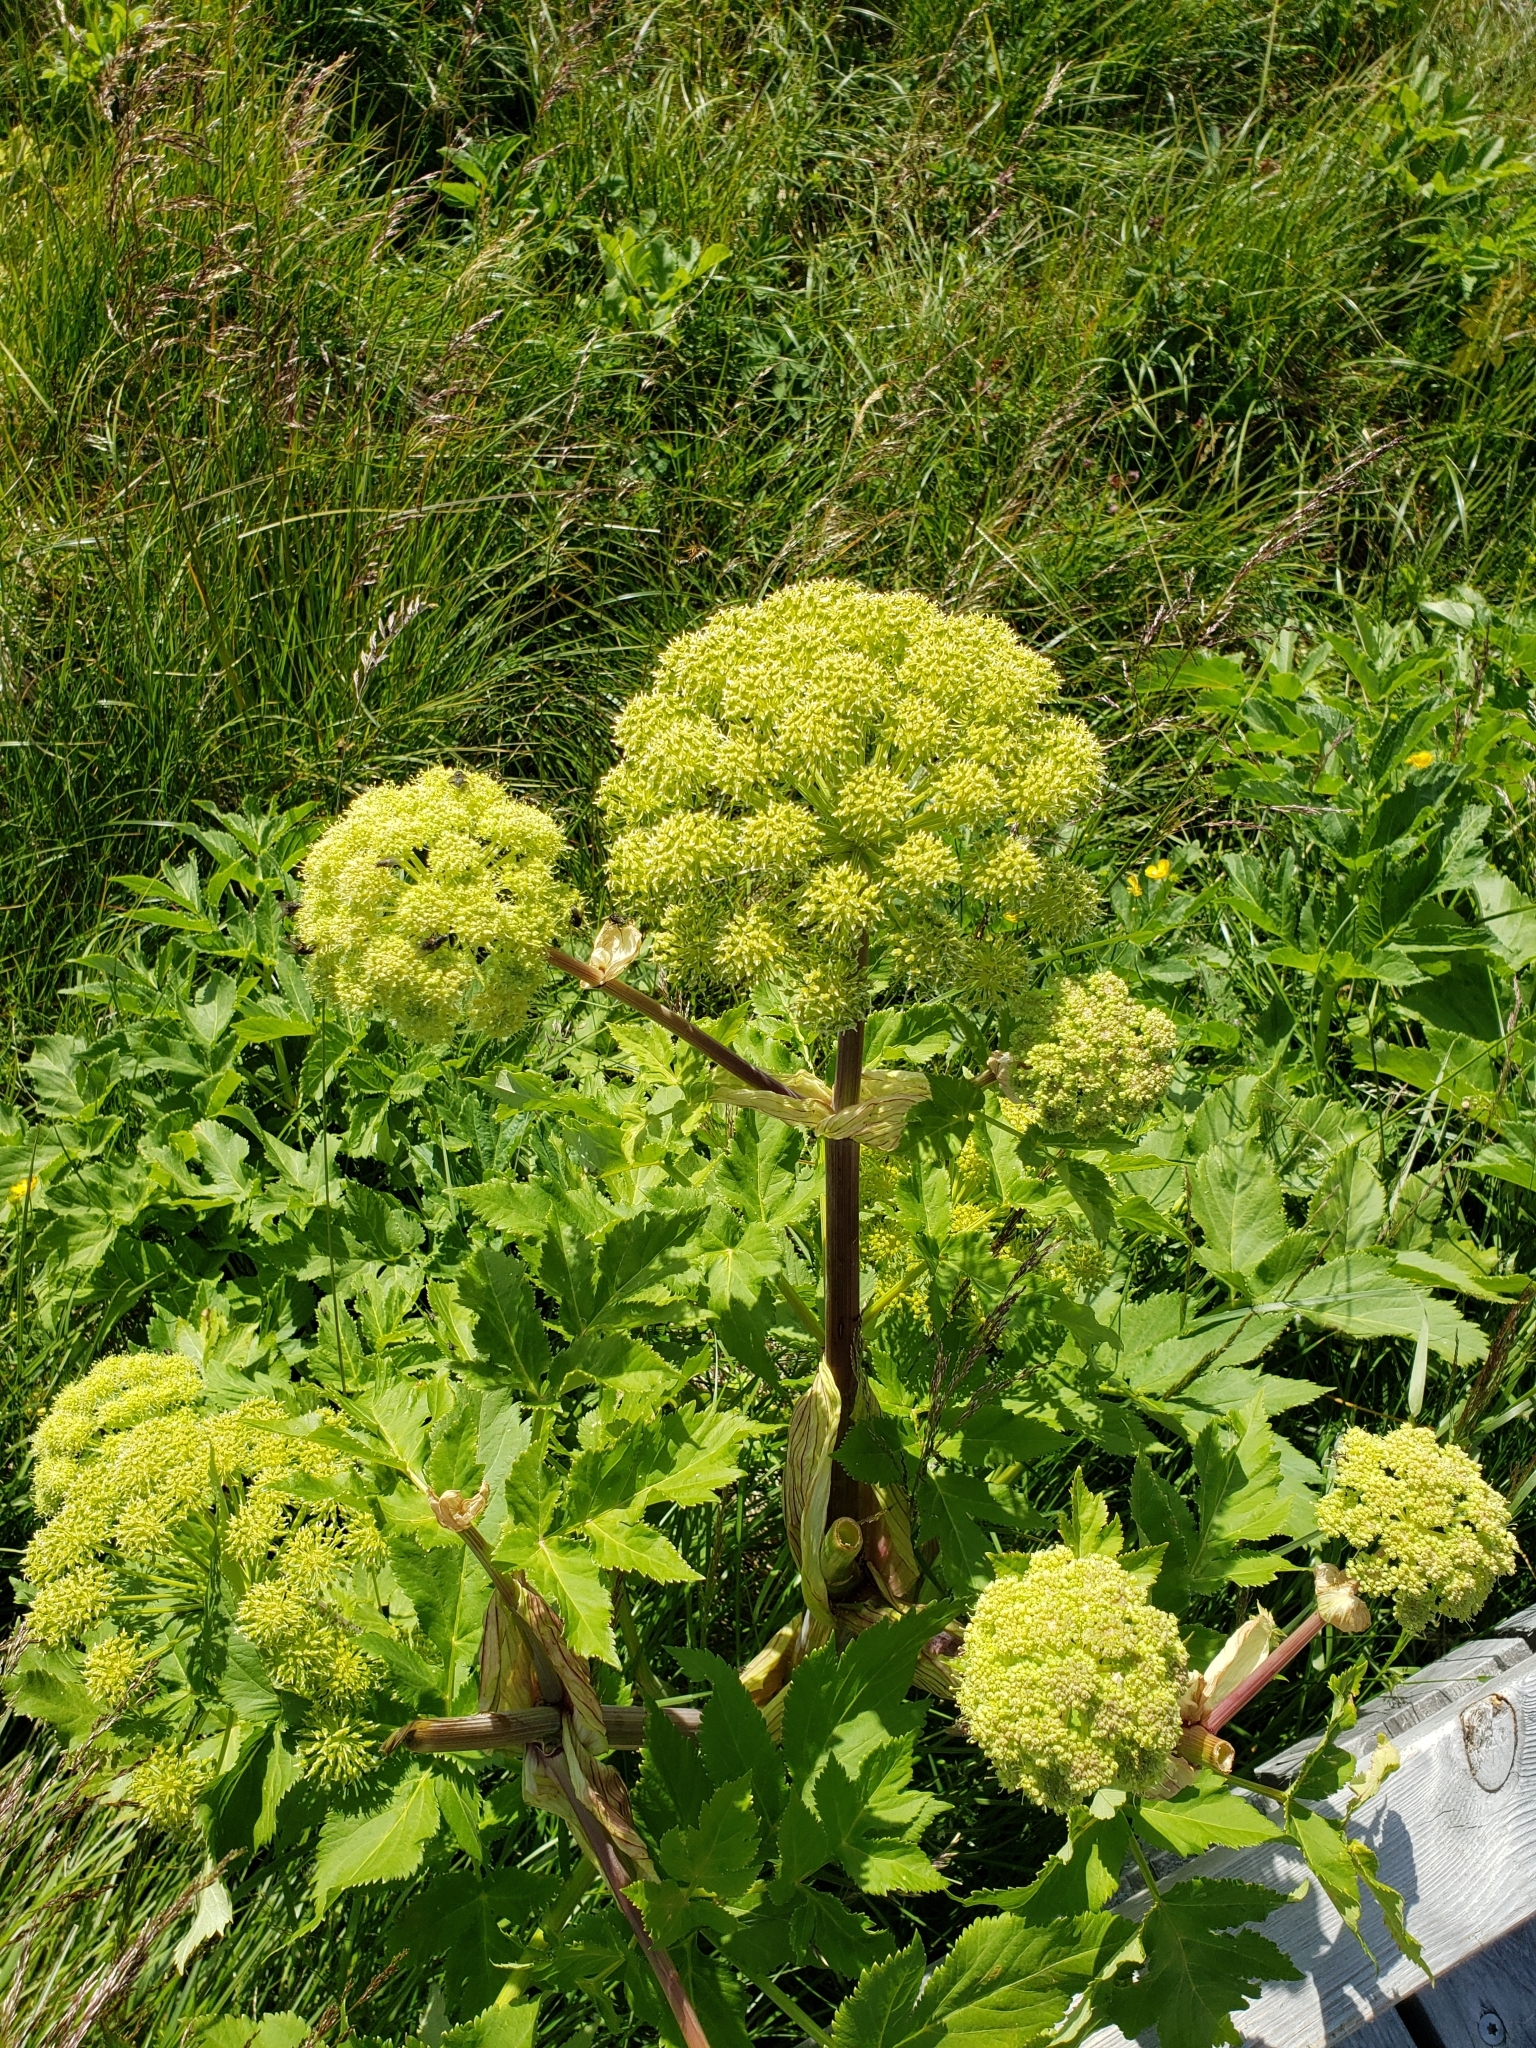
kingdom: Plantae
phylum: Tracheophyta
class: Magnoliopsida
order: Apiales
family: Apiaceae
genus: Angelica
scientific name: Angelica archangelica
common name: Garden angelica
